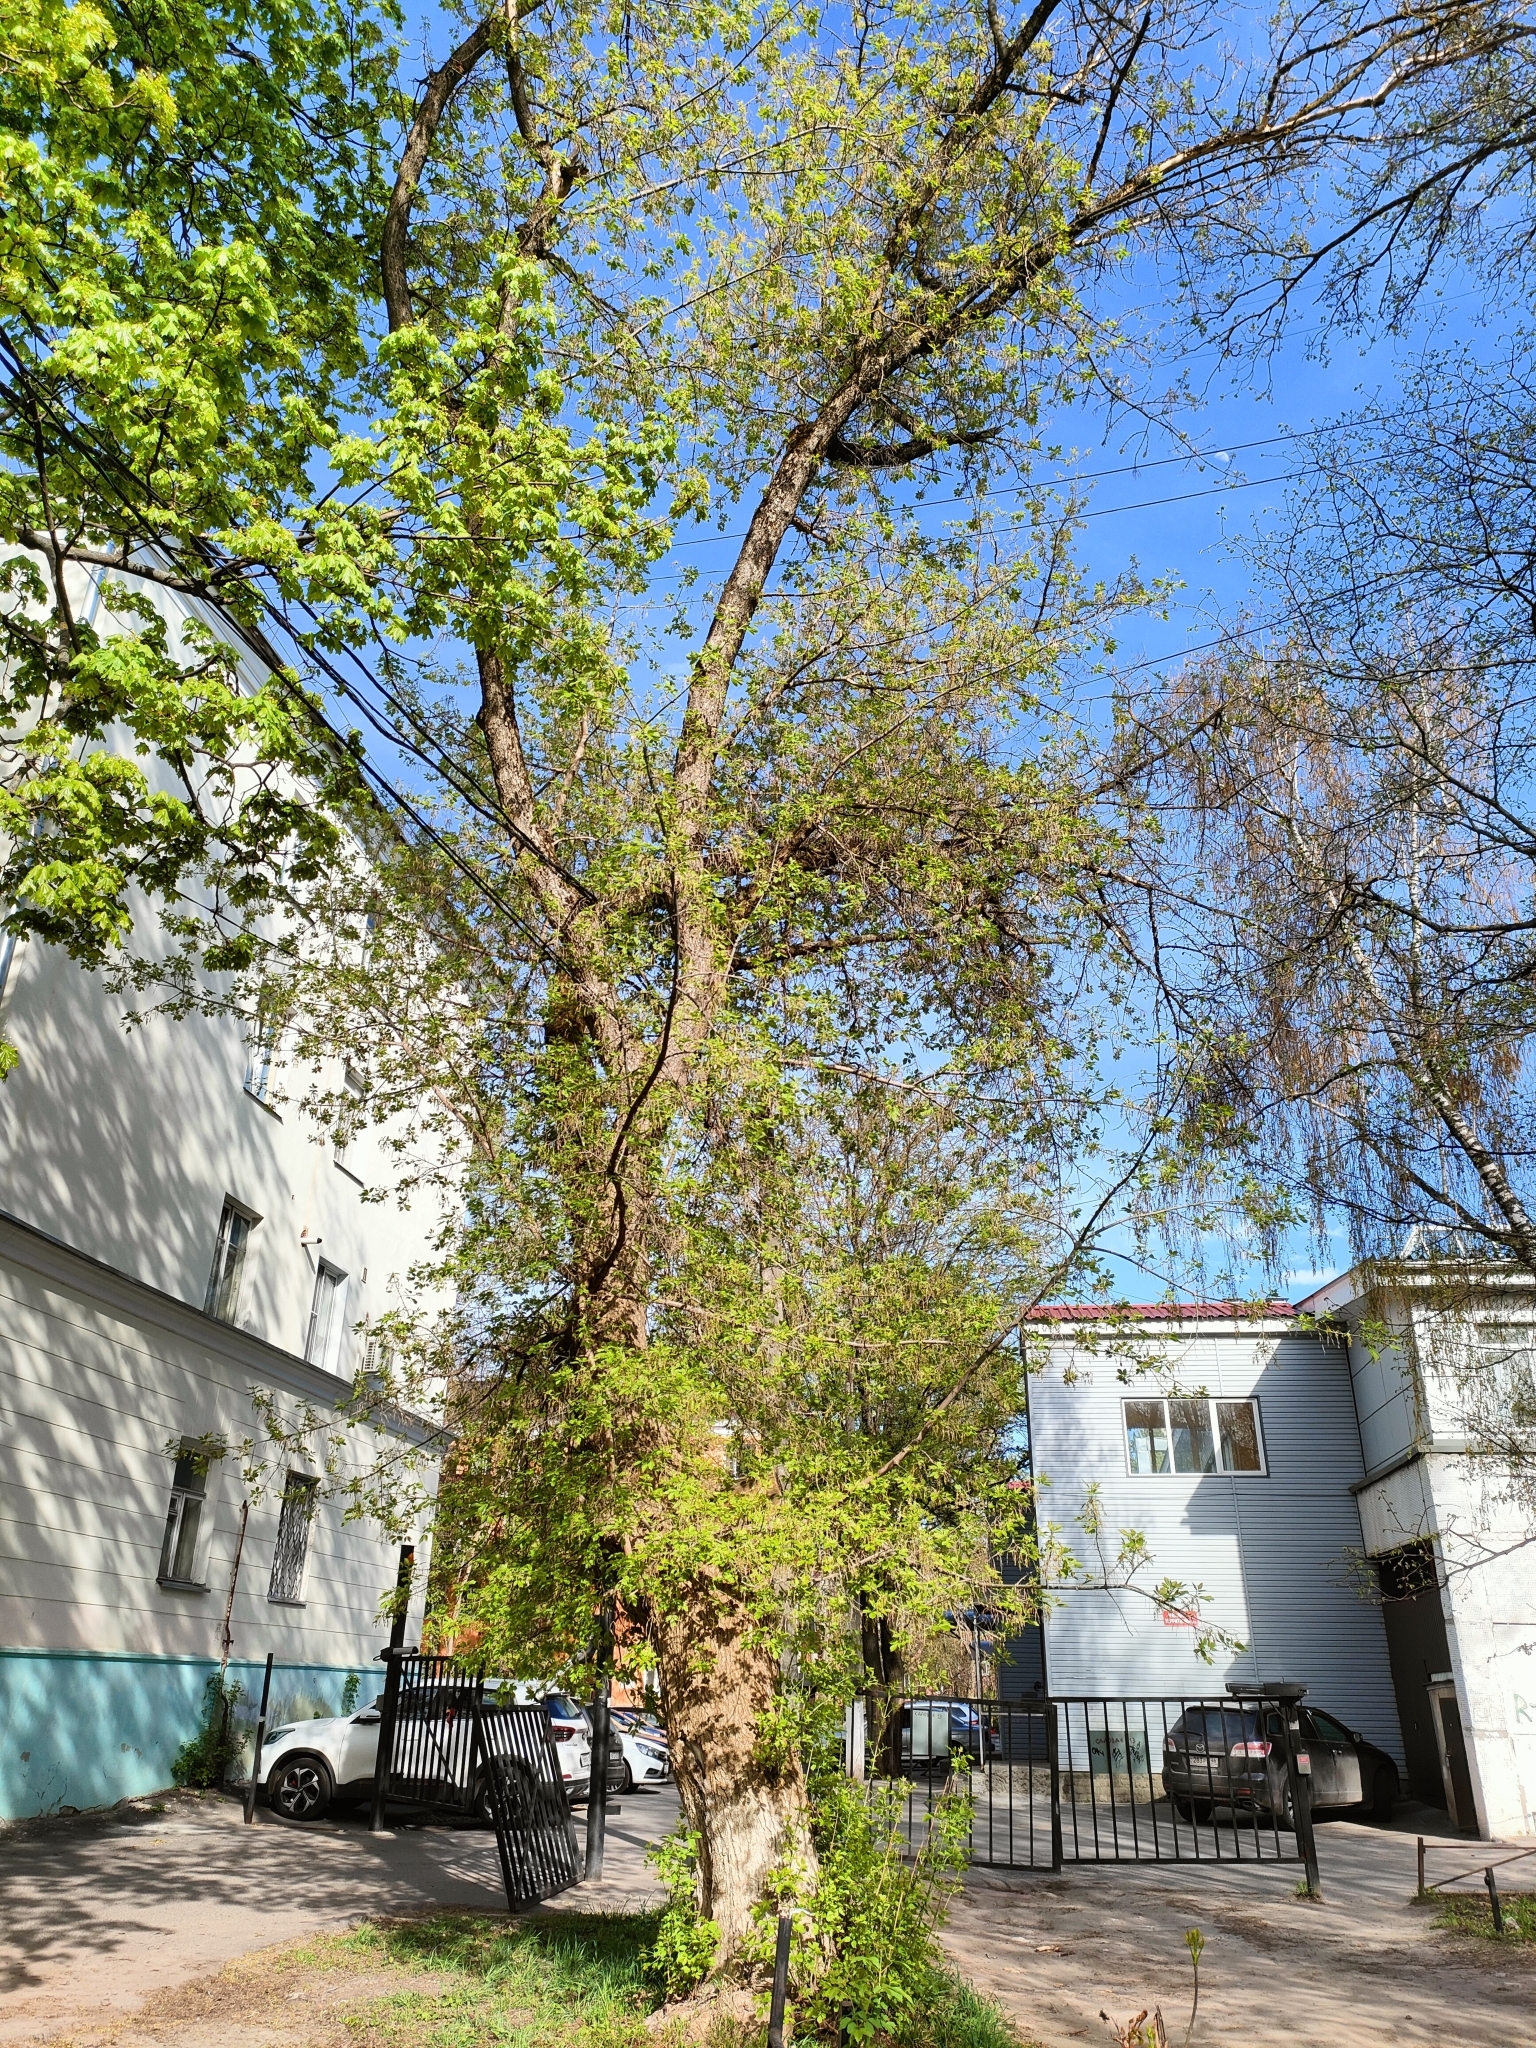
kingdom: Plantae
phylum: Tracheophyta
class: Magnoliopsida
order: Sapindales
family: Sapindaceae
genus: Acer
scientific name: Acer negundo
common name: Ashleaf maple
